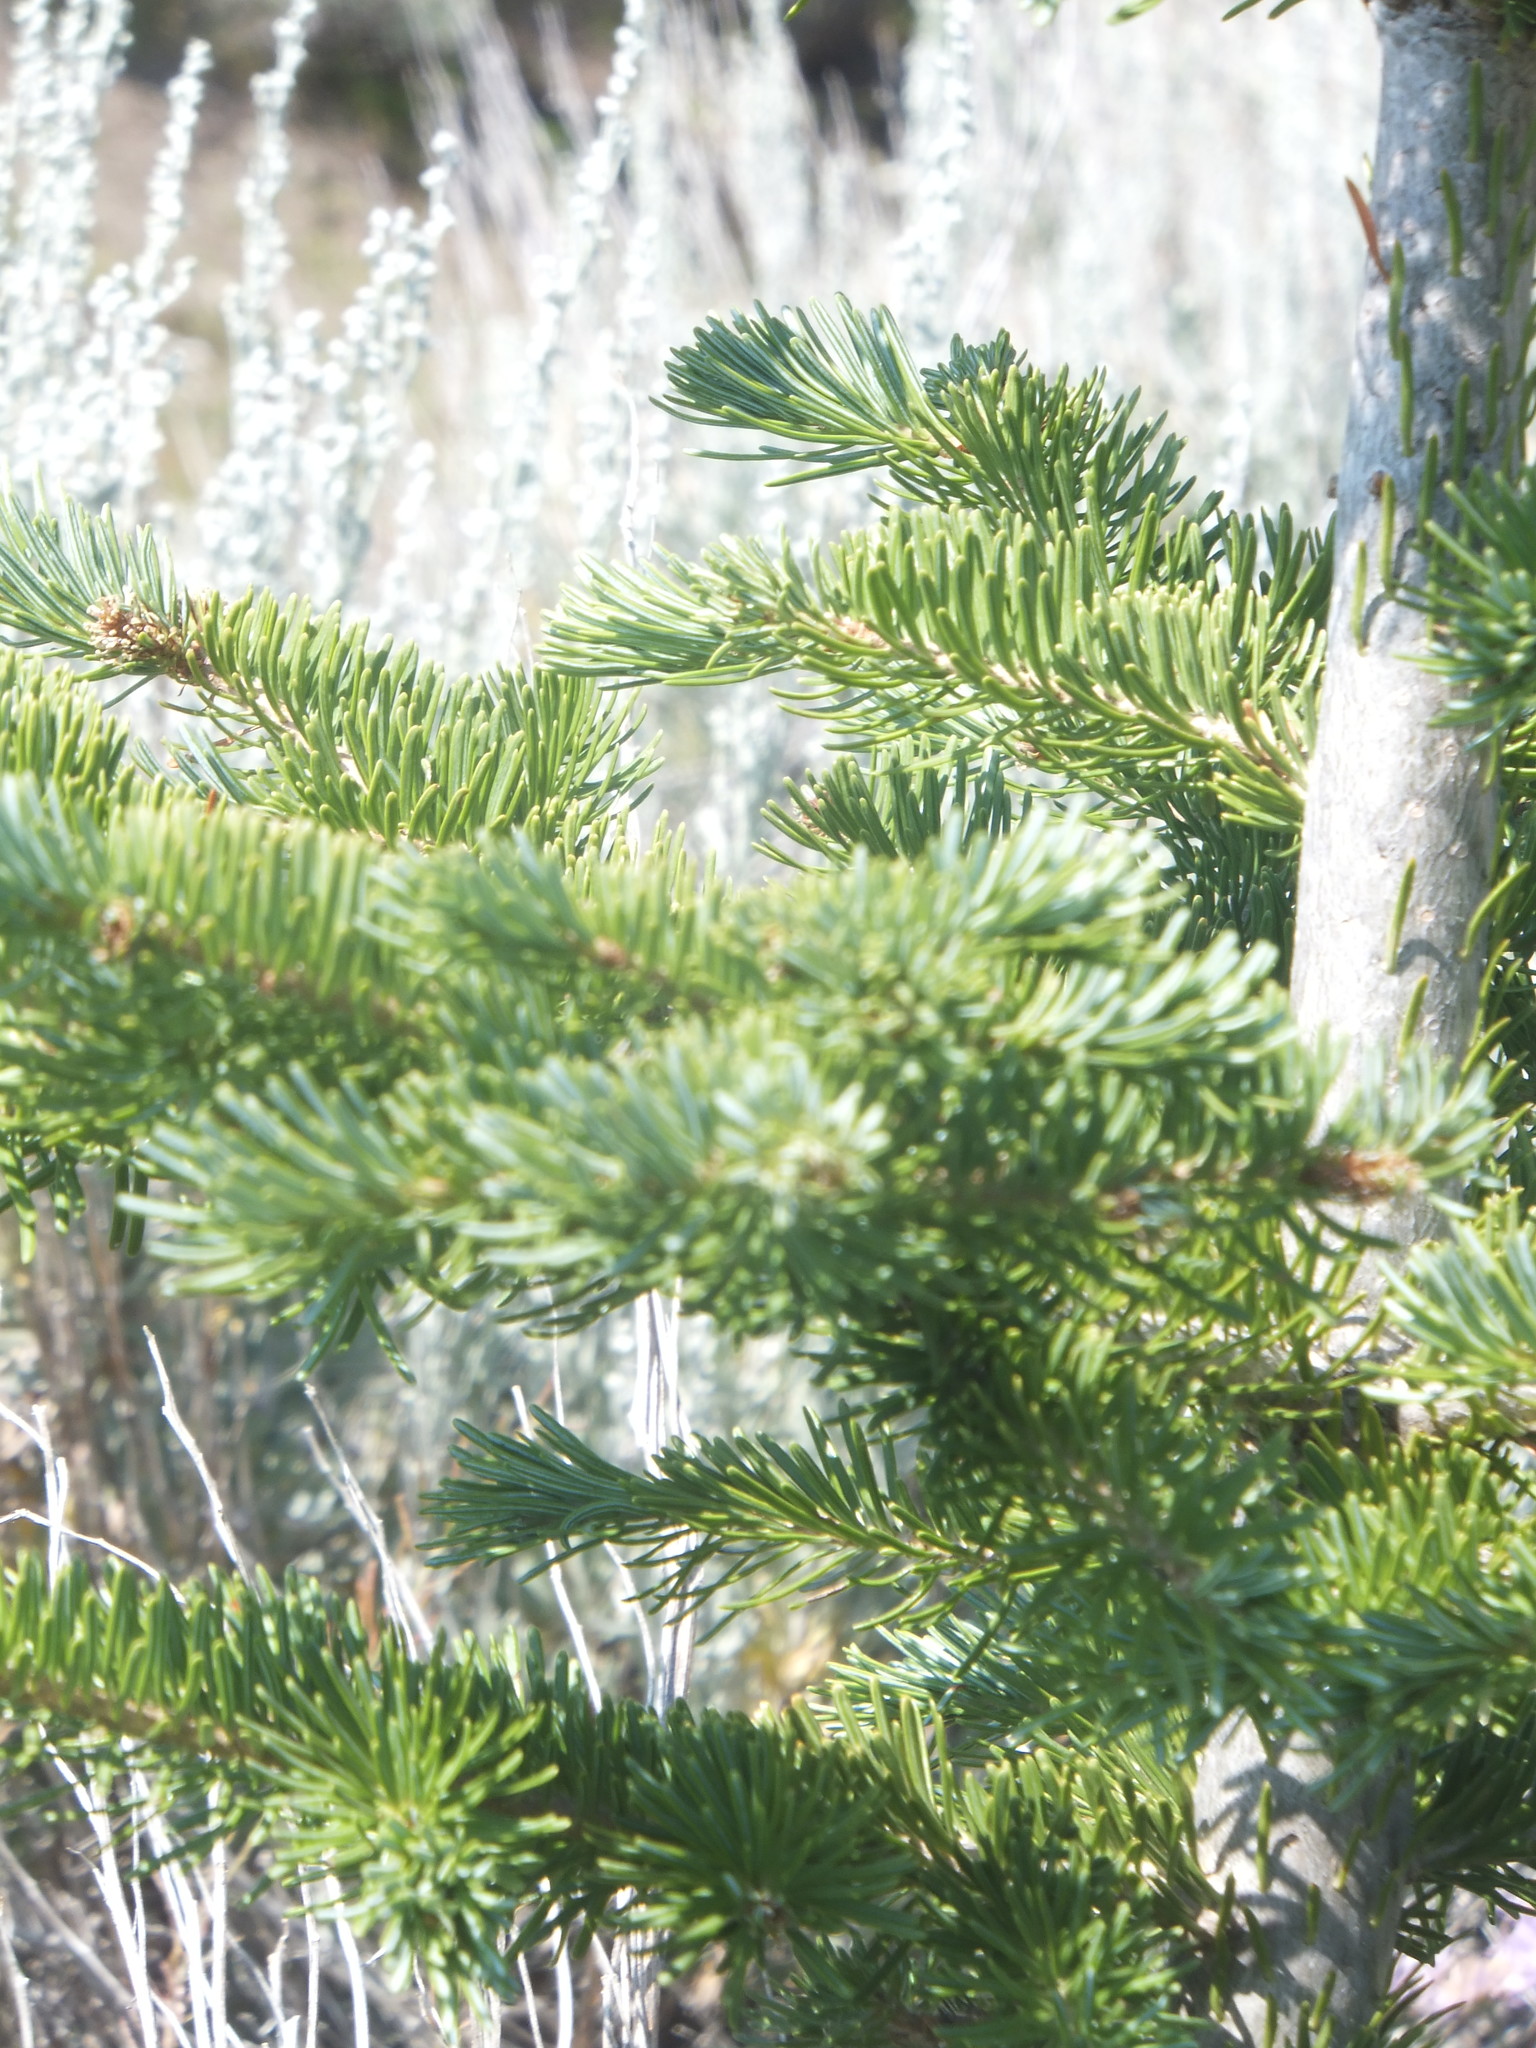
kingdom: Plantae
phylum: Tracheophyta
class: Pinopsida
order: Pinales
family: Pinaceae
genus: Abies
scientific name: Abies lasiocarpa
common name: Subalpine fir
